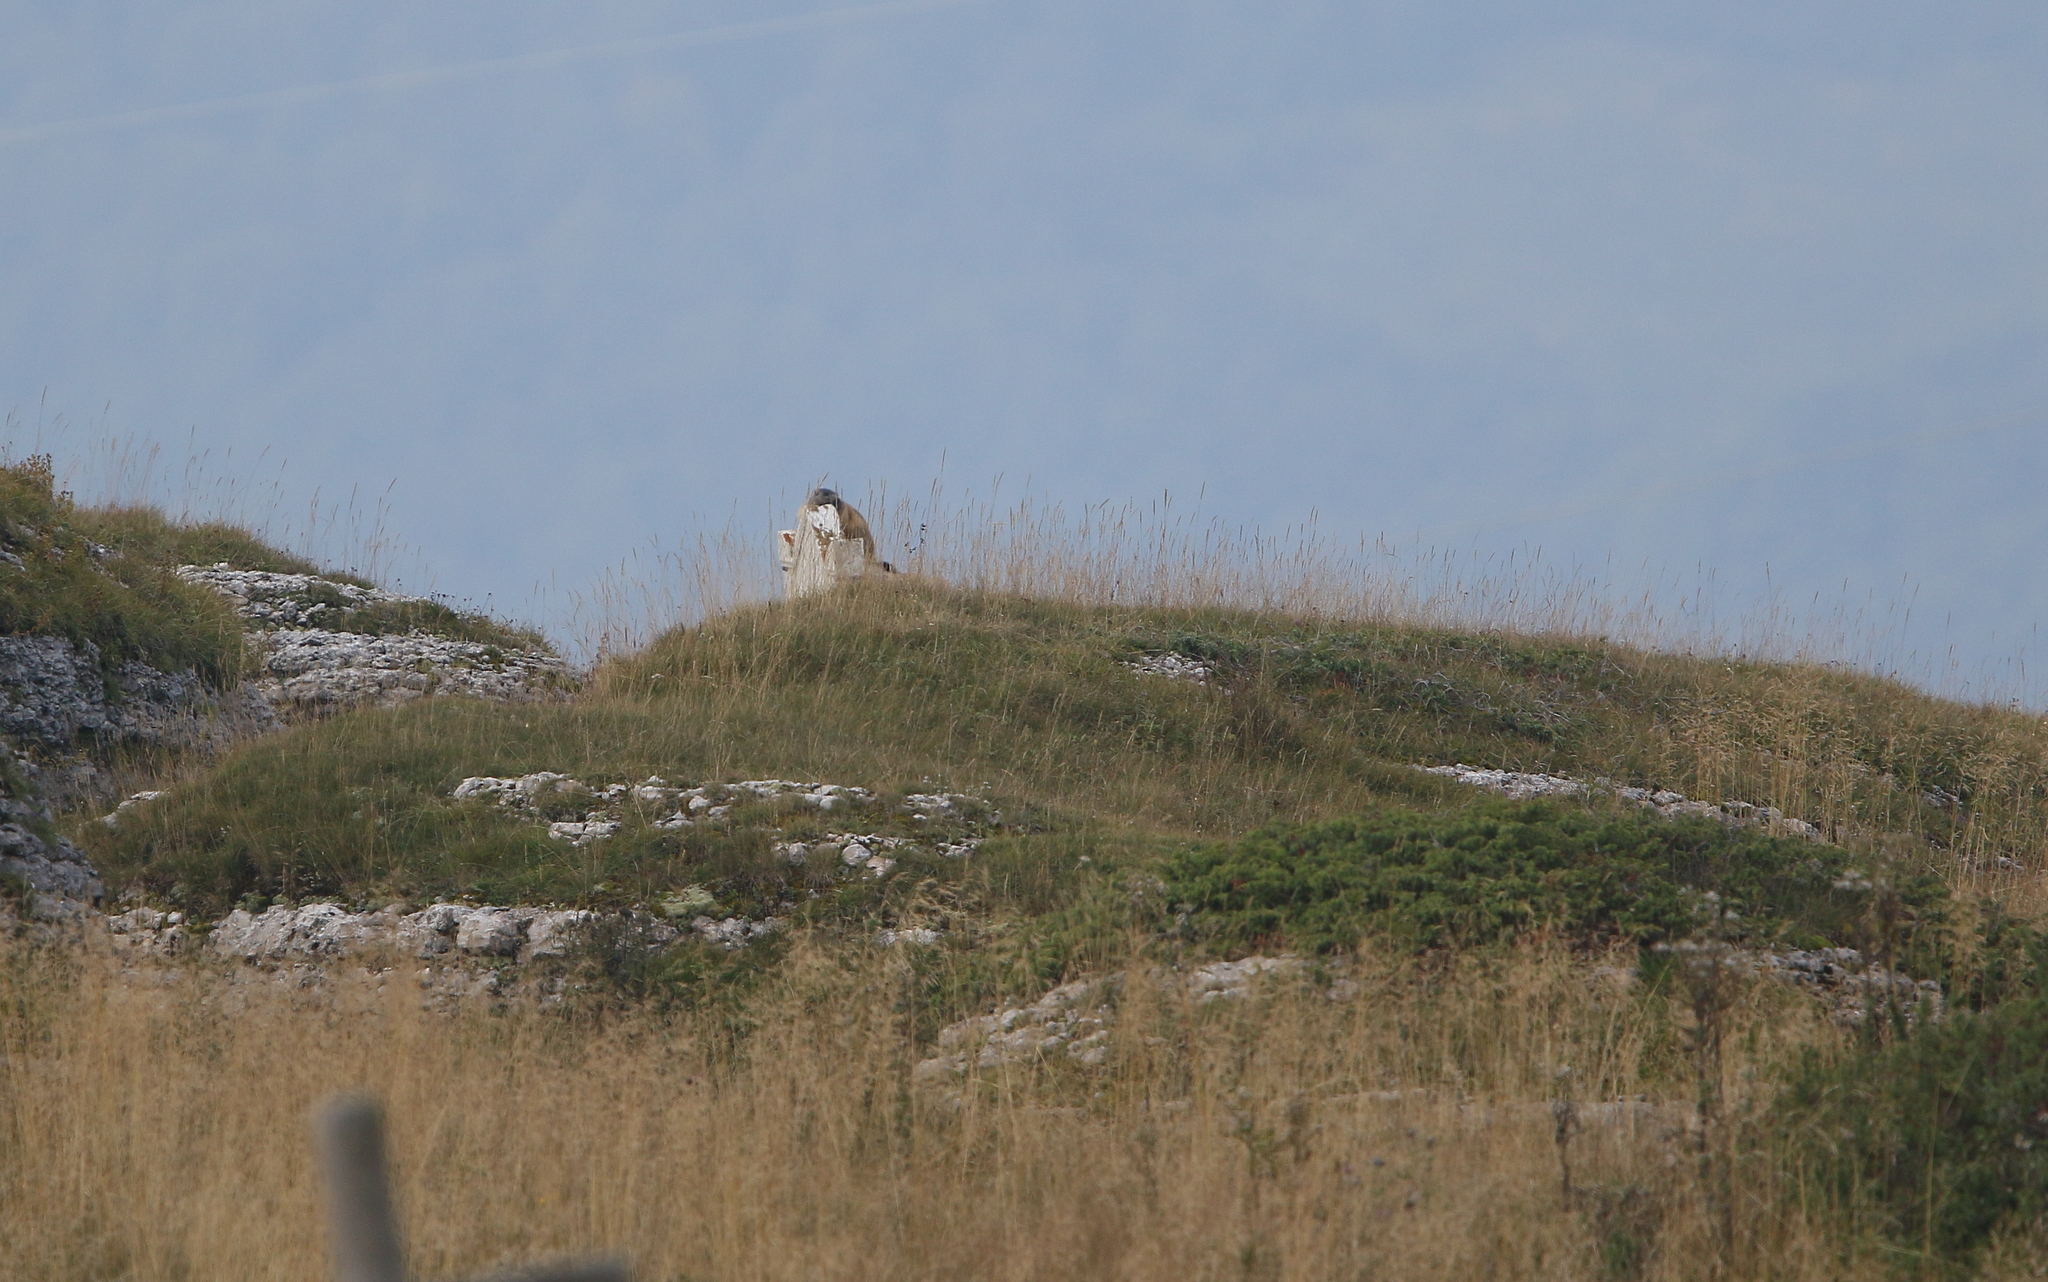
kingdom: Animalia
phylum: Chordata
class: Mammalia
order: Rodentia
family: Sciuridae
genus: Marmota
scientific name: Marmota marmota
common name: Alpine marmot
